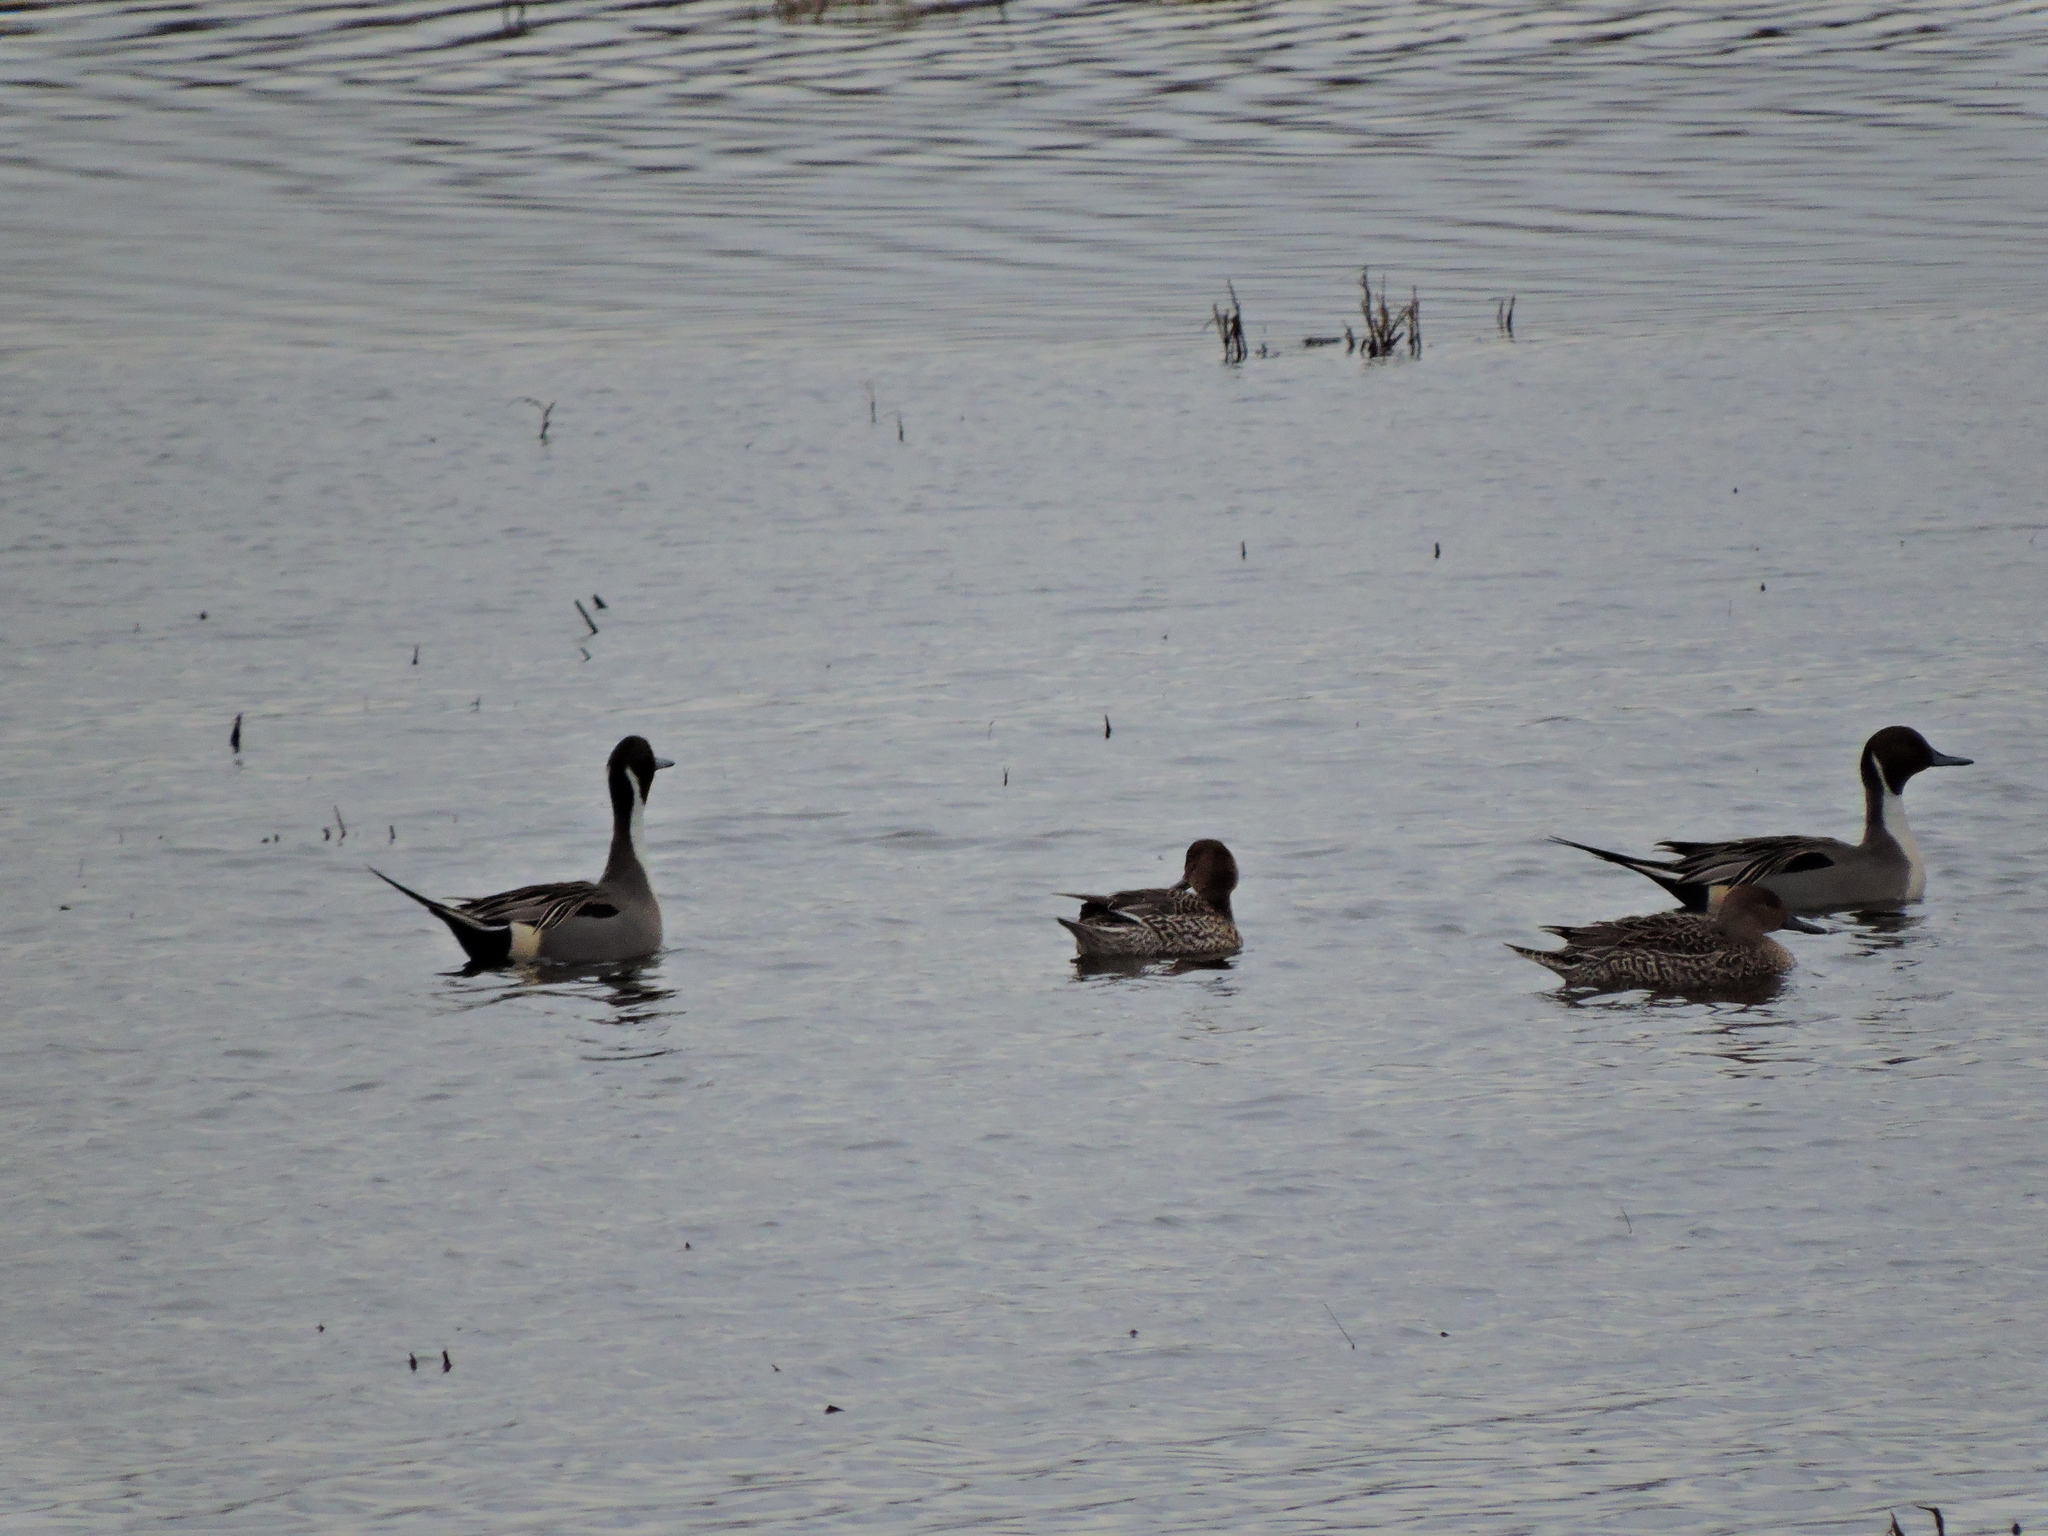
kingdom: Animalia
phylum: Chordata
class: Aves
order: Anseriformes
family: Anatidae
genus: Anas
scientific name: Anas acuta
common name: Northern pintail
